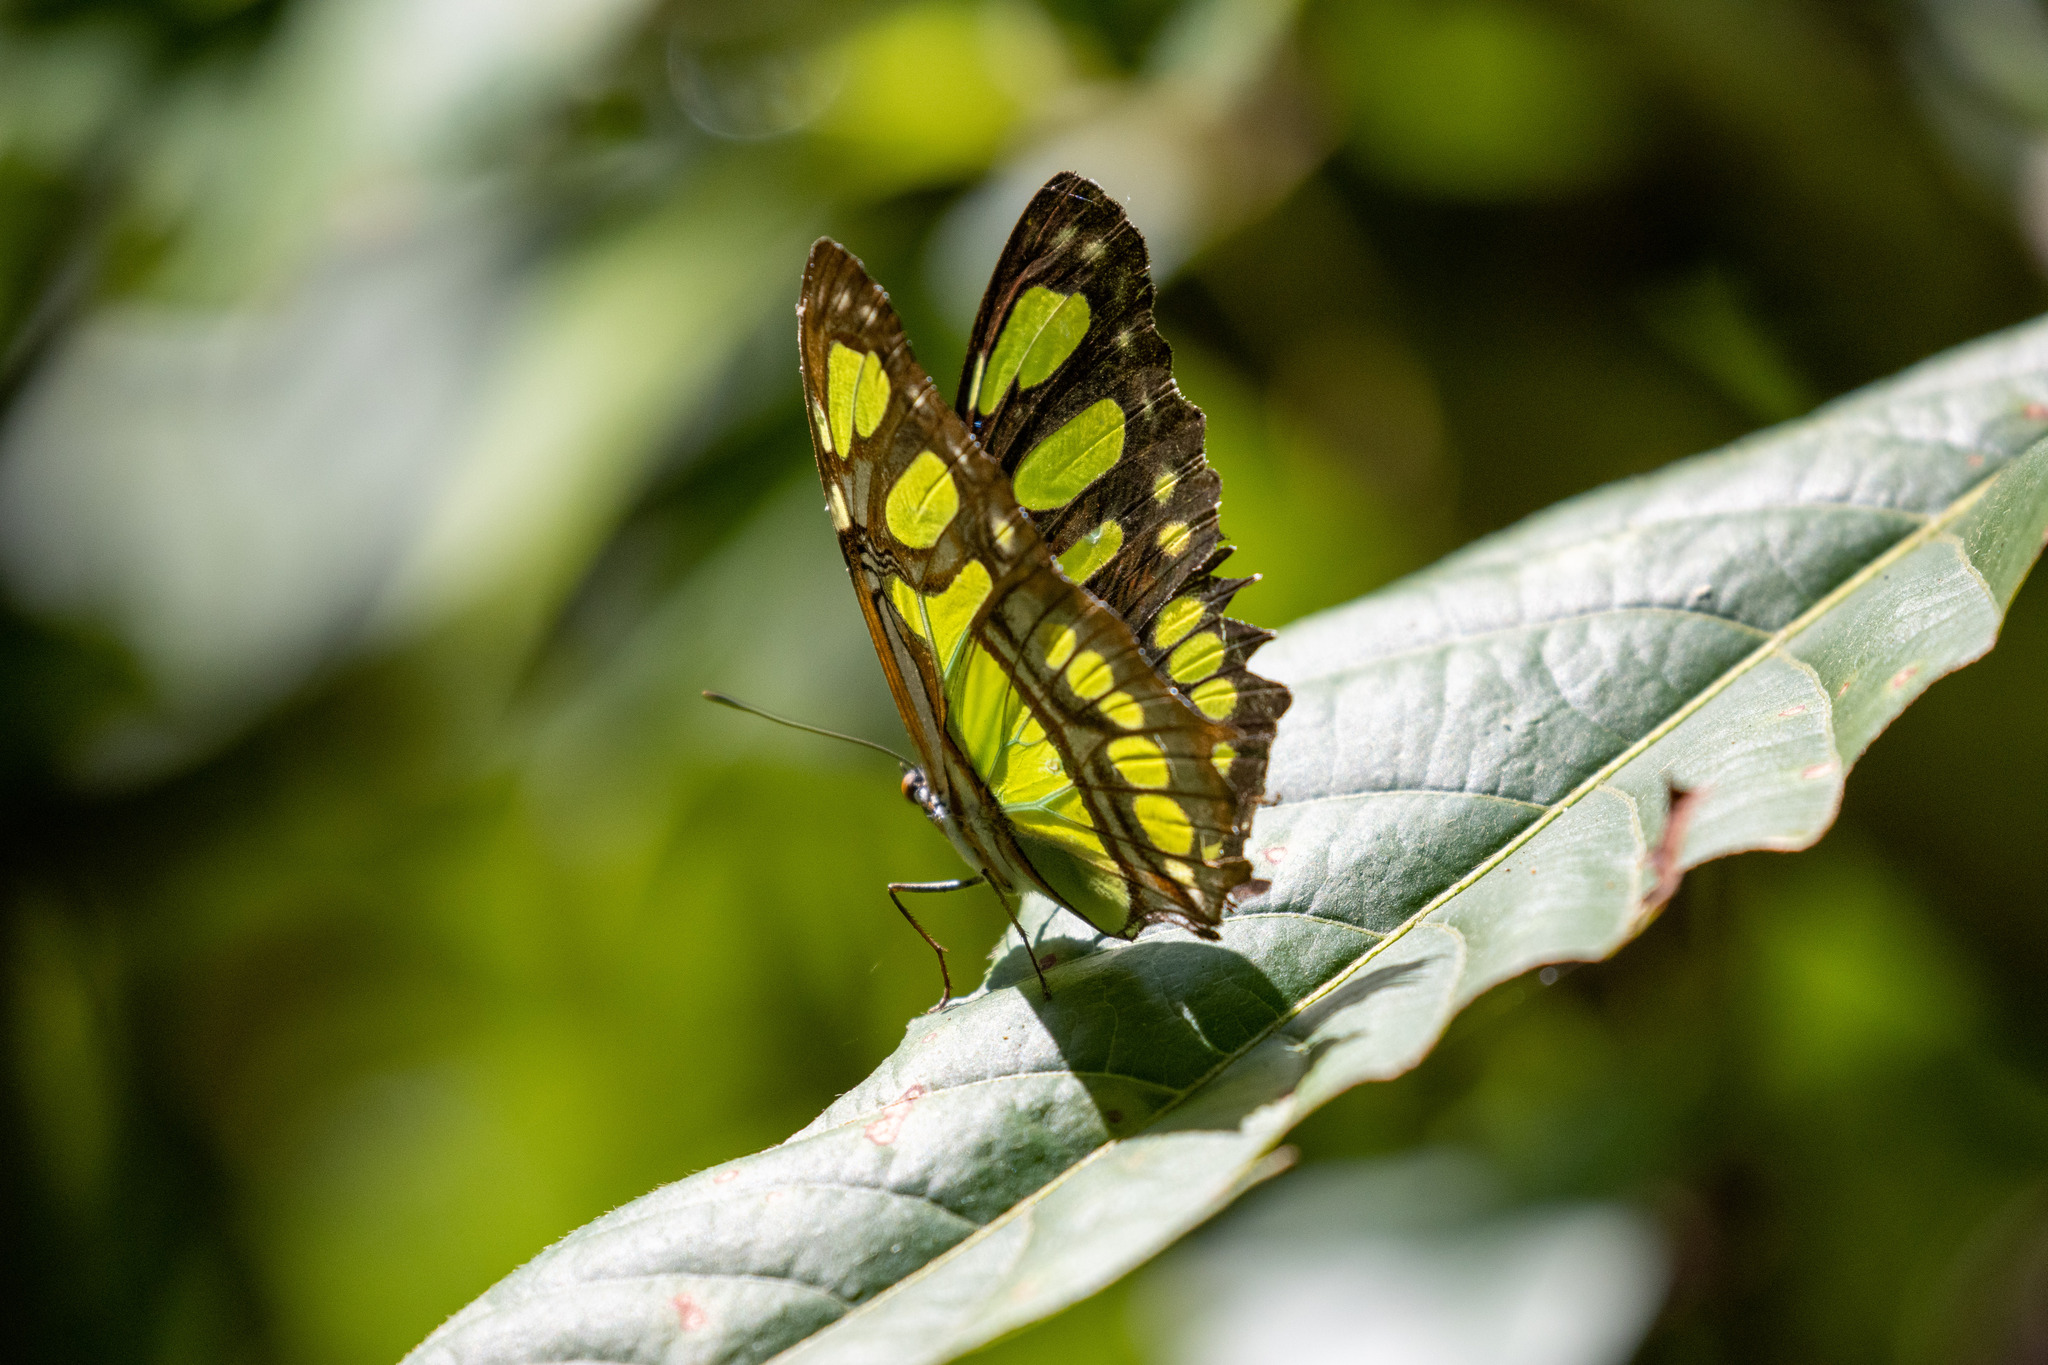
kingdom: Animalia
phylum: Arthropoda
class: Insecta
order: Lepidoptera
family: Nymphalidae
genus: Siproeta
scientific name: Siproeta stelenes
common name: Malachite
